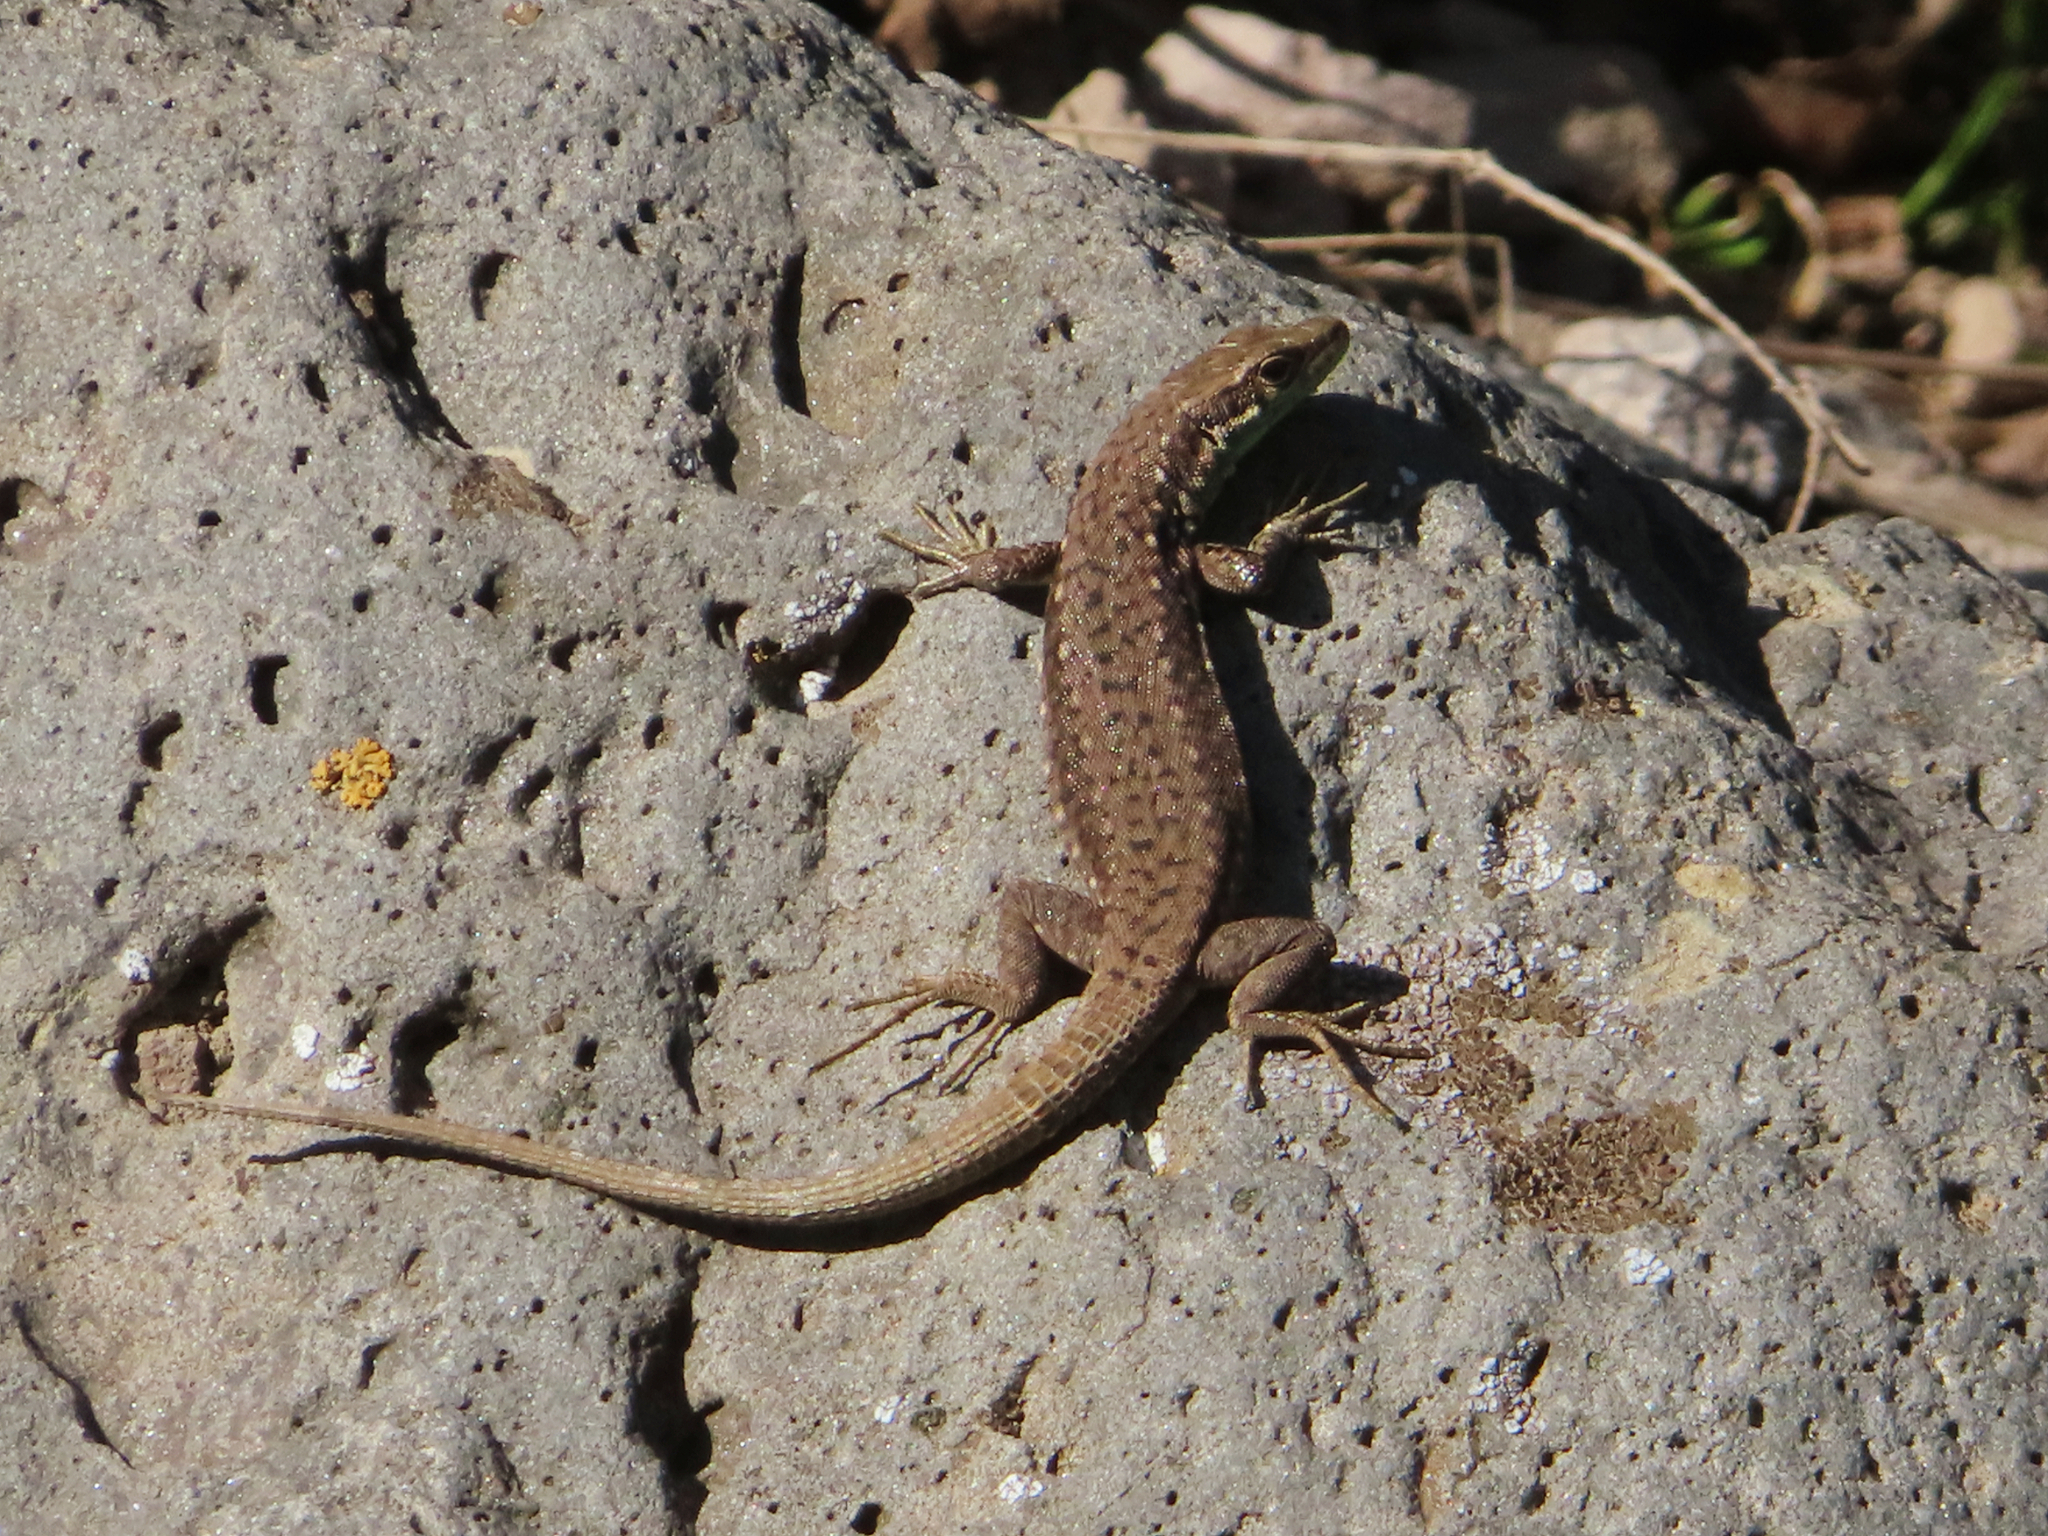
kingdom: Animalia
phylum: Chordata
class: Squamata
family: Lacertidae
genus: Darevskia
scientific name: Darevskia raddei
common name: Radde's lizard
